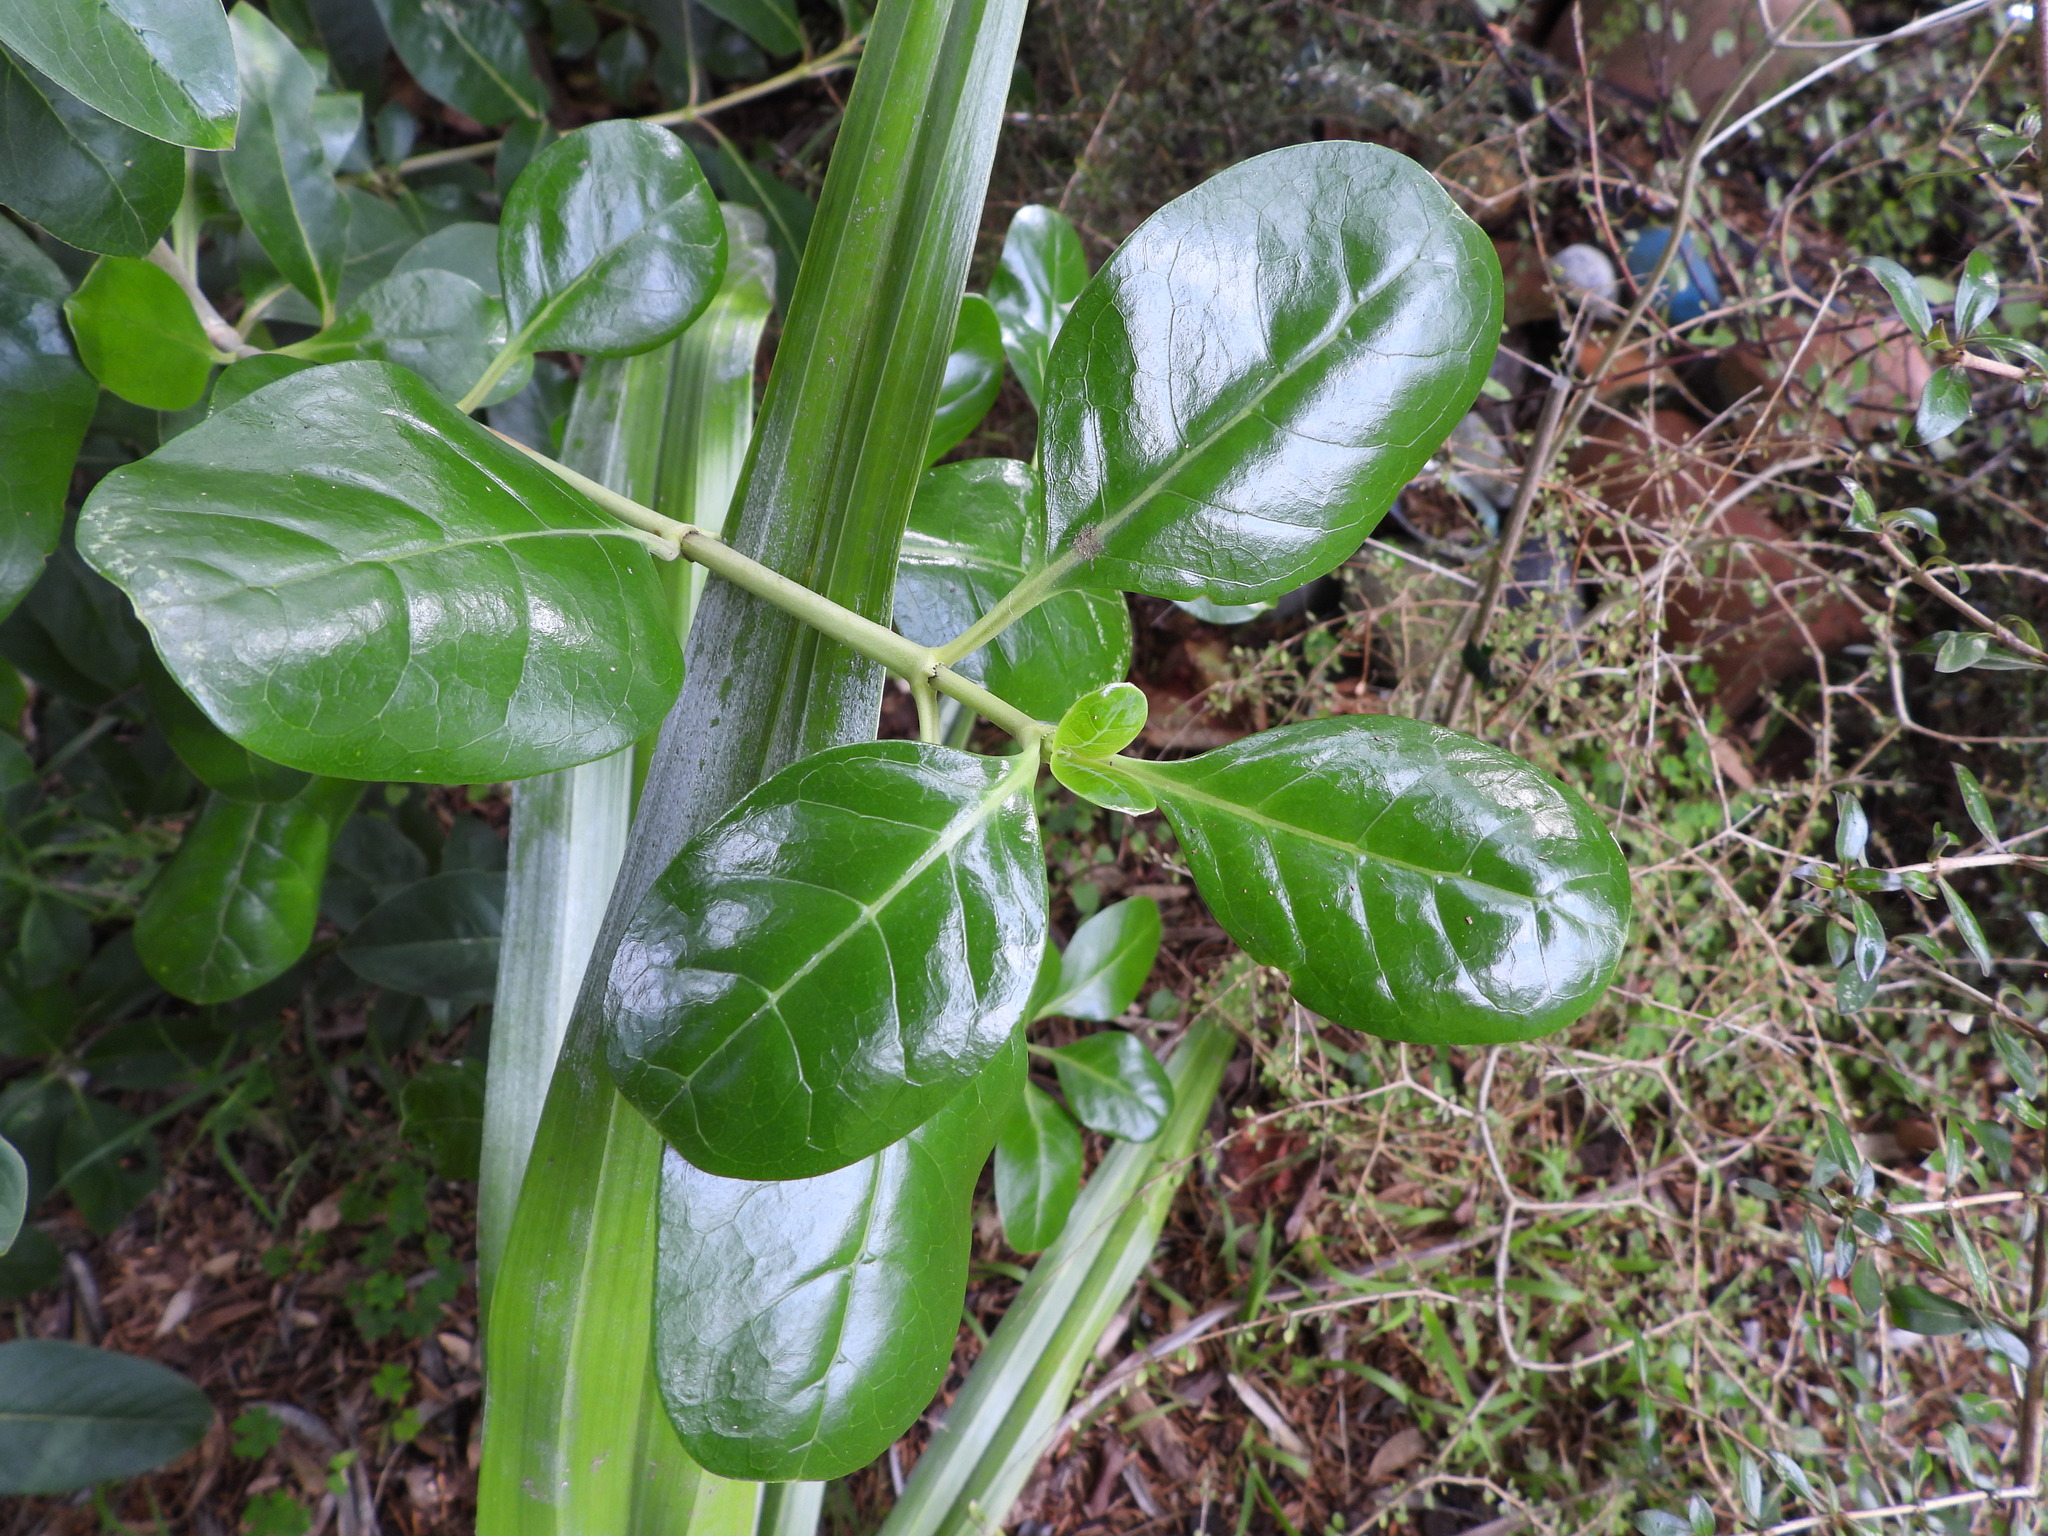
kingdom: Plantae
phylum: Tracheophyta
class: Magnoliopsida
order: Gentianales
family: Rubiaceae
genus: Coprosma
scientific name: Coprosma repens
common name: Tree bedstraw
